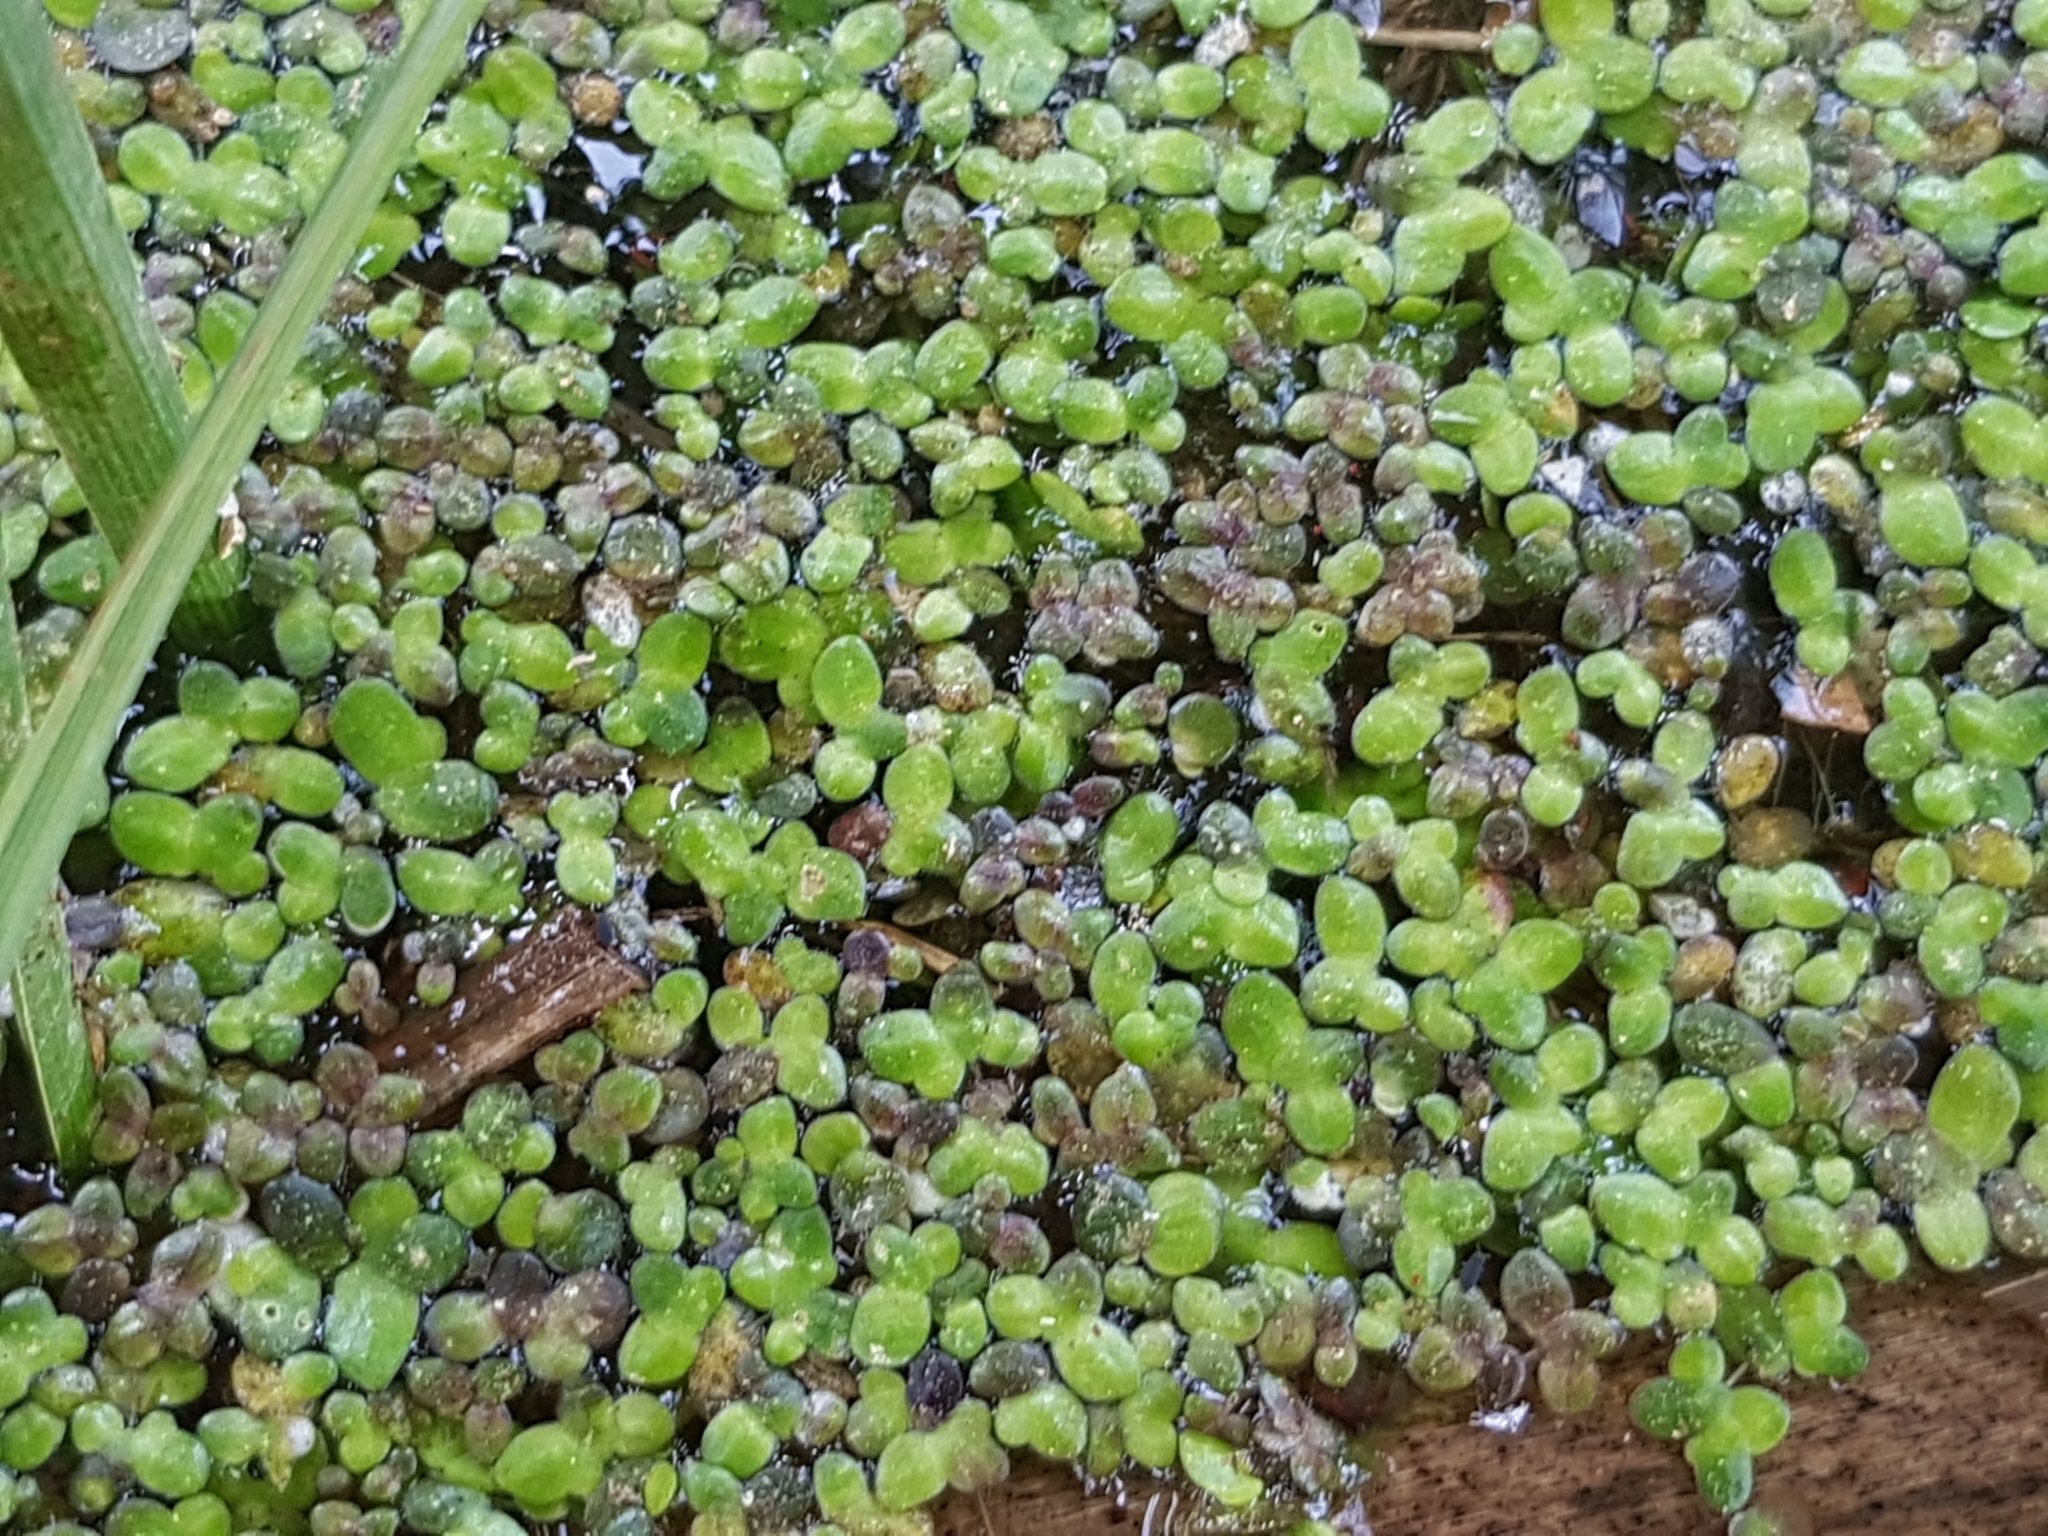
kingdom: Plantae
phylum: Tracheophyta
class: Liliopsida
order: Alismatales
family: Araceae
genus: Lemna
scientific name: Lemna minor
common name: Common duckweed
